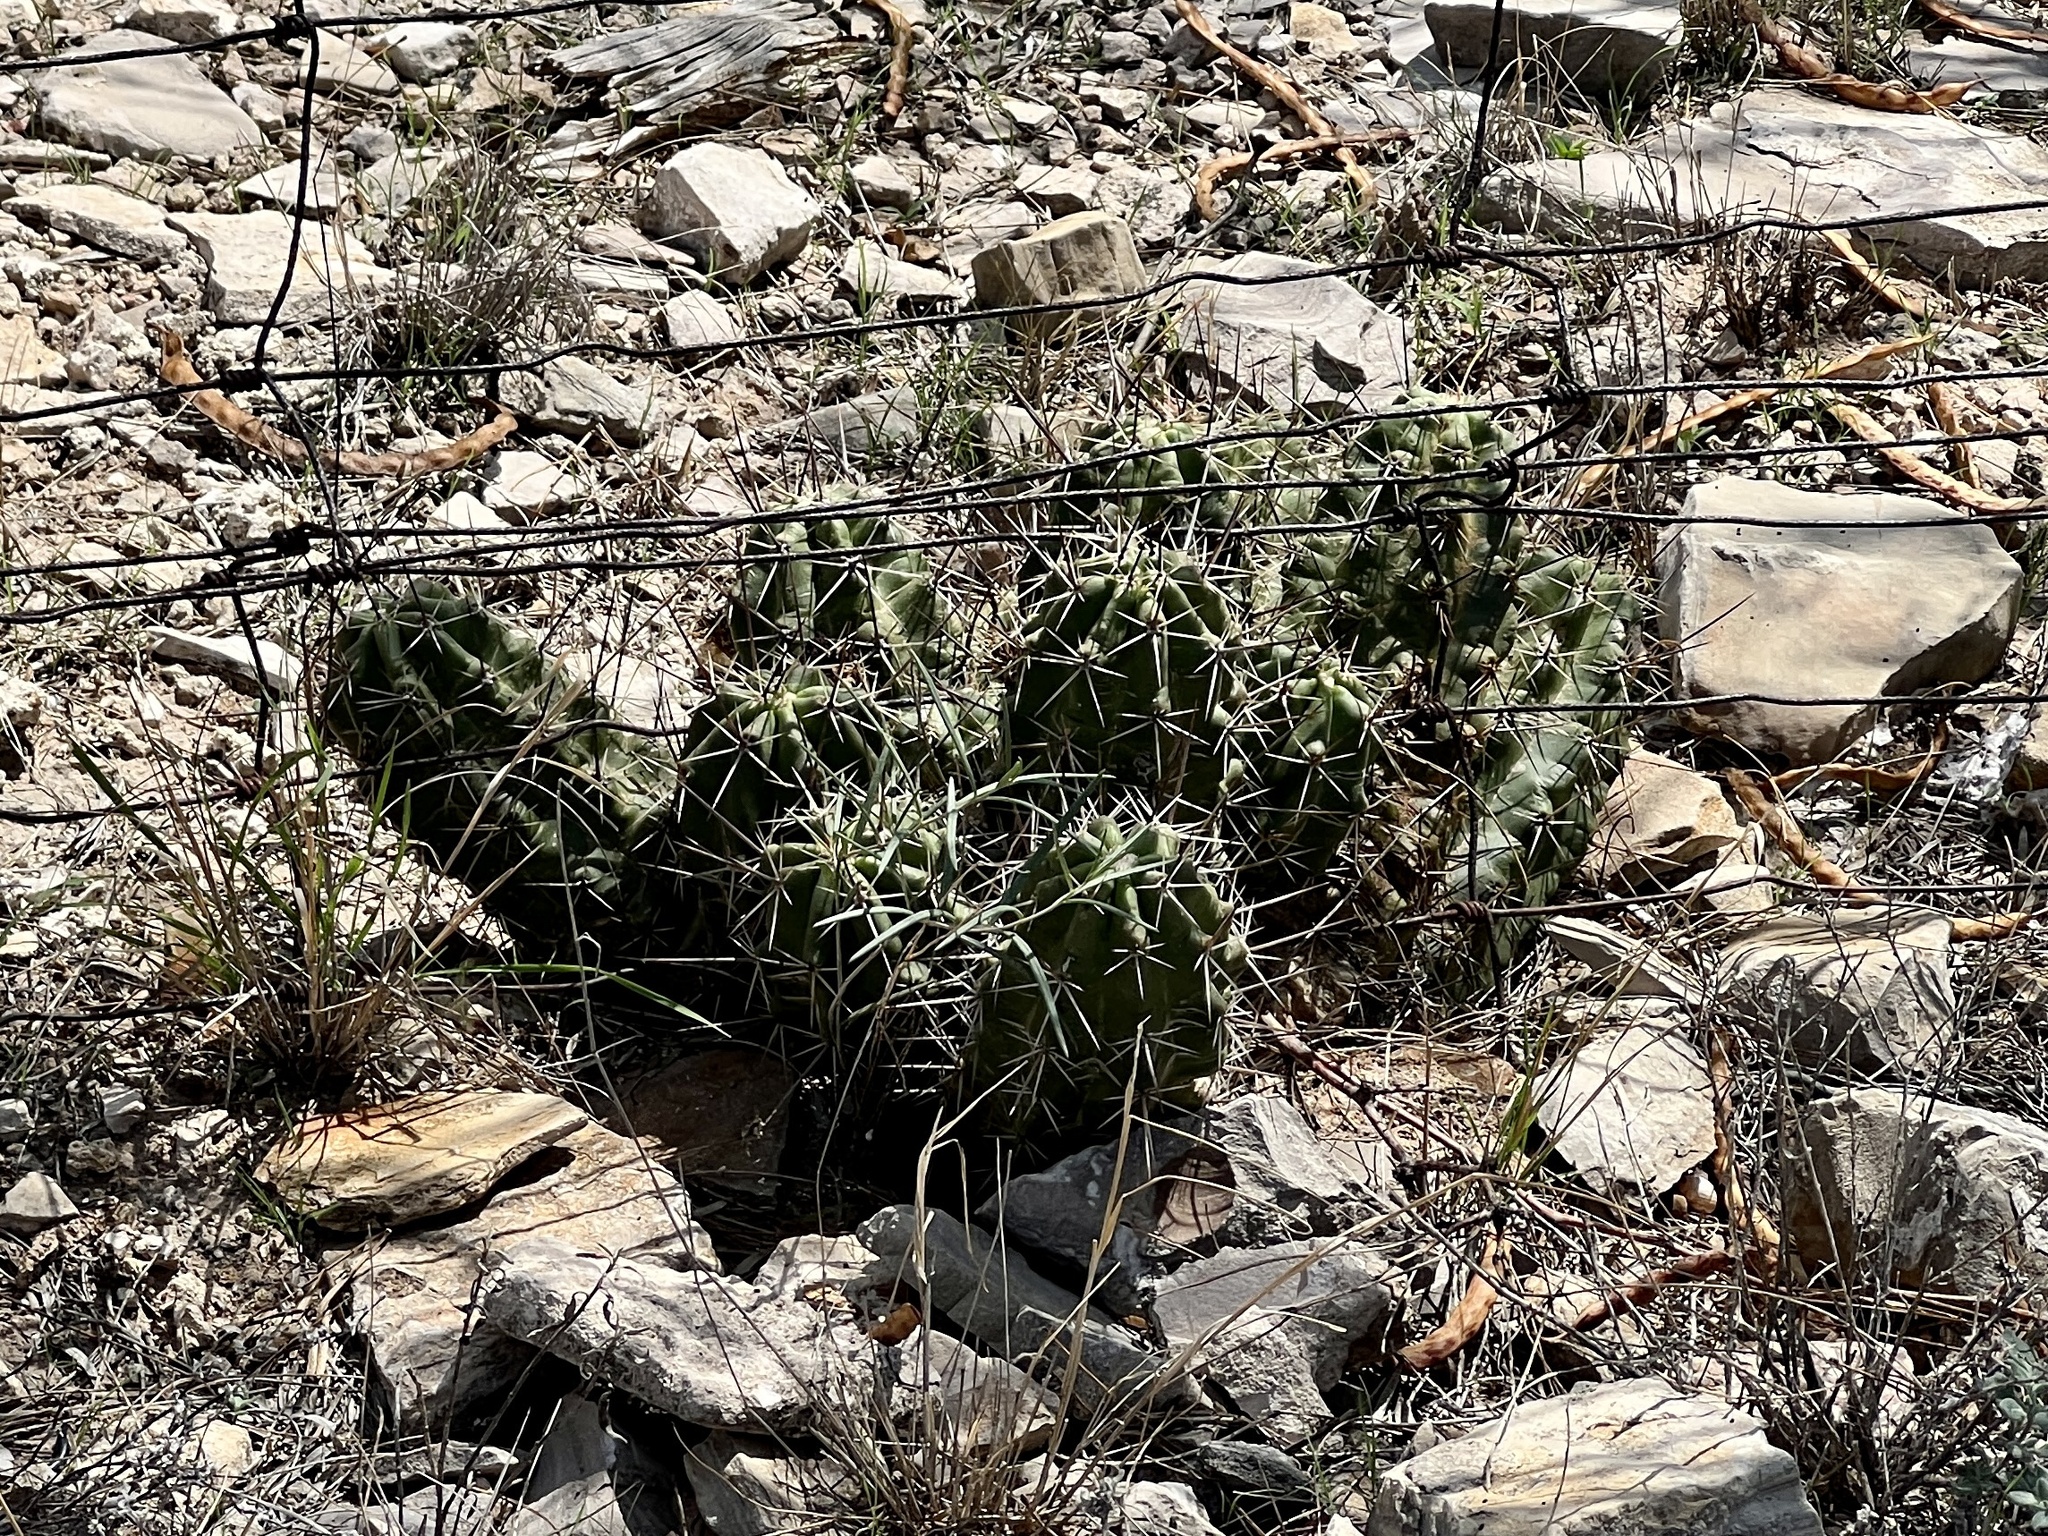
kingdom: Plantae
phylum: Tracheophyta
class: Magnoliopsida
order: Caryophyllales
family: Cactaceae
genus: Echinocereus
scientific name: Echinocereus enneacanthus
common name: Pitaya
